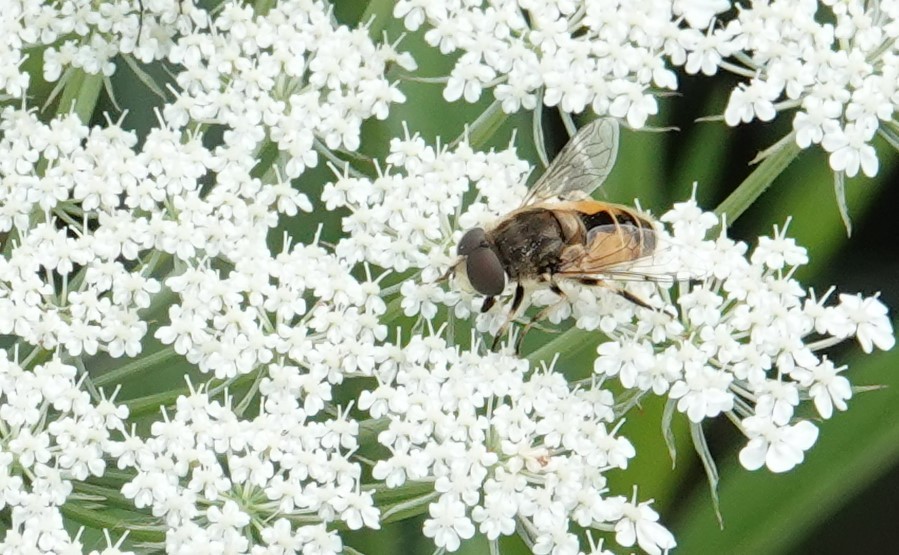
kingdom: Animalia
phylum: Arthropoda
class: Insecta
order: Diptera
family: Syrphidae
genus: Eristalis
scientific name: Eristalis arbustorum
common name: Hover fly
